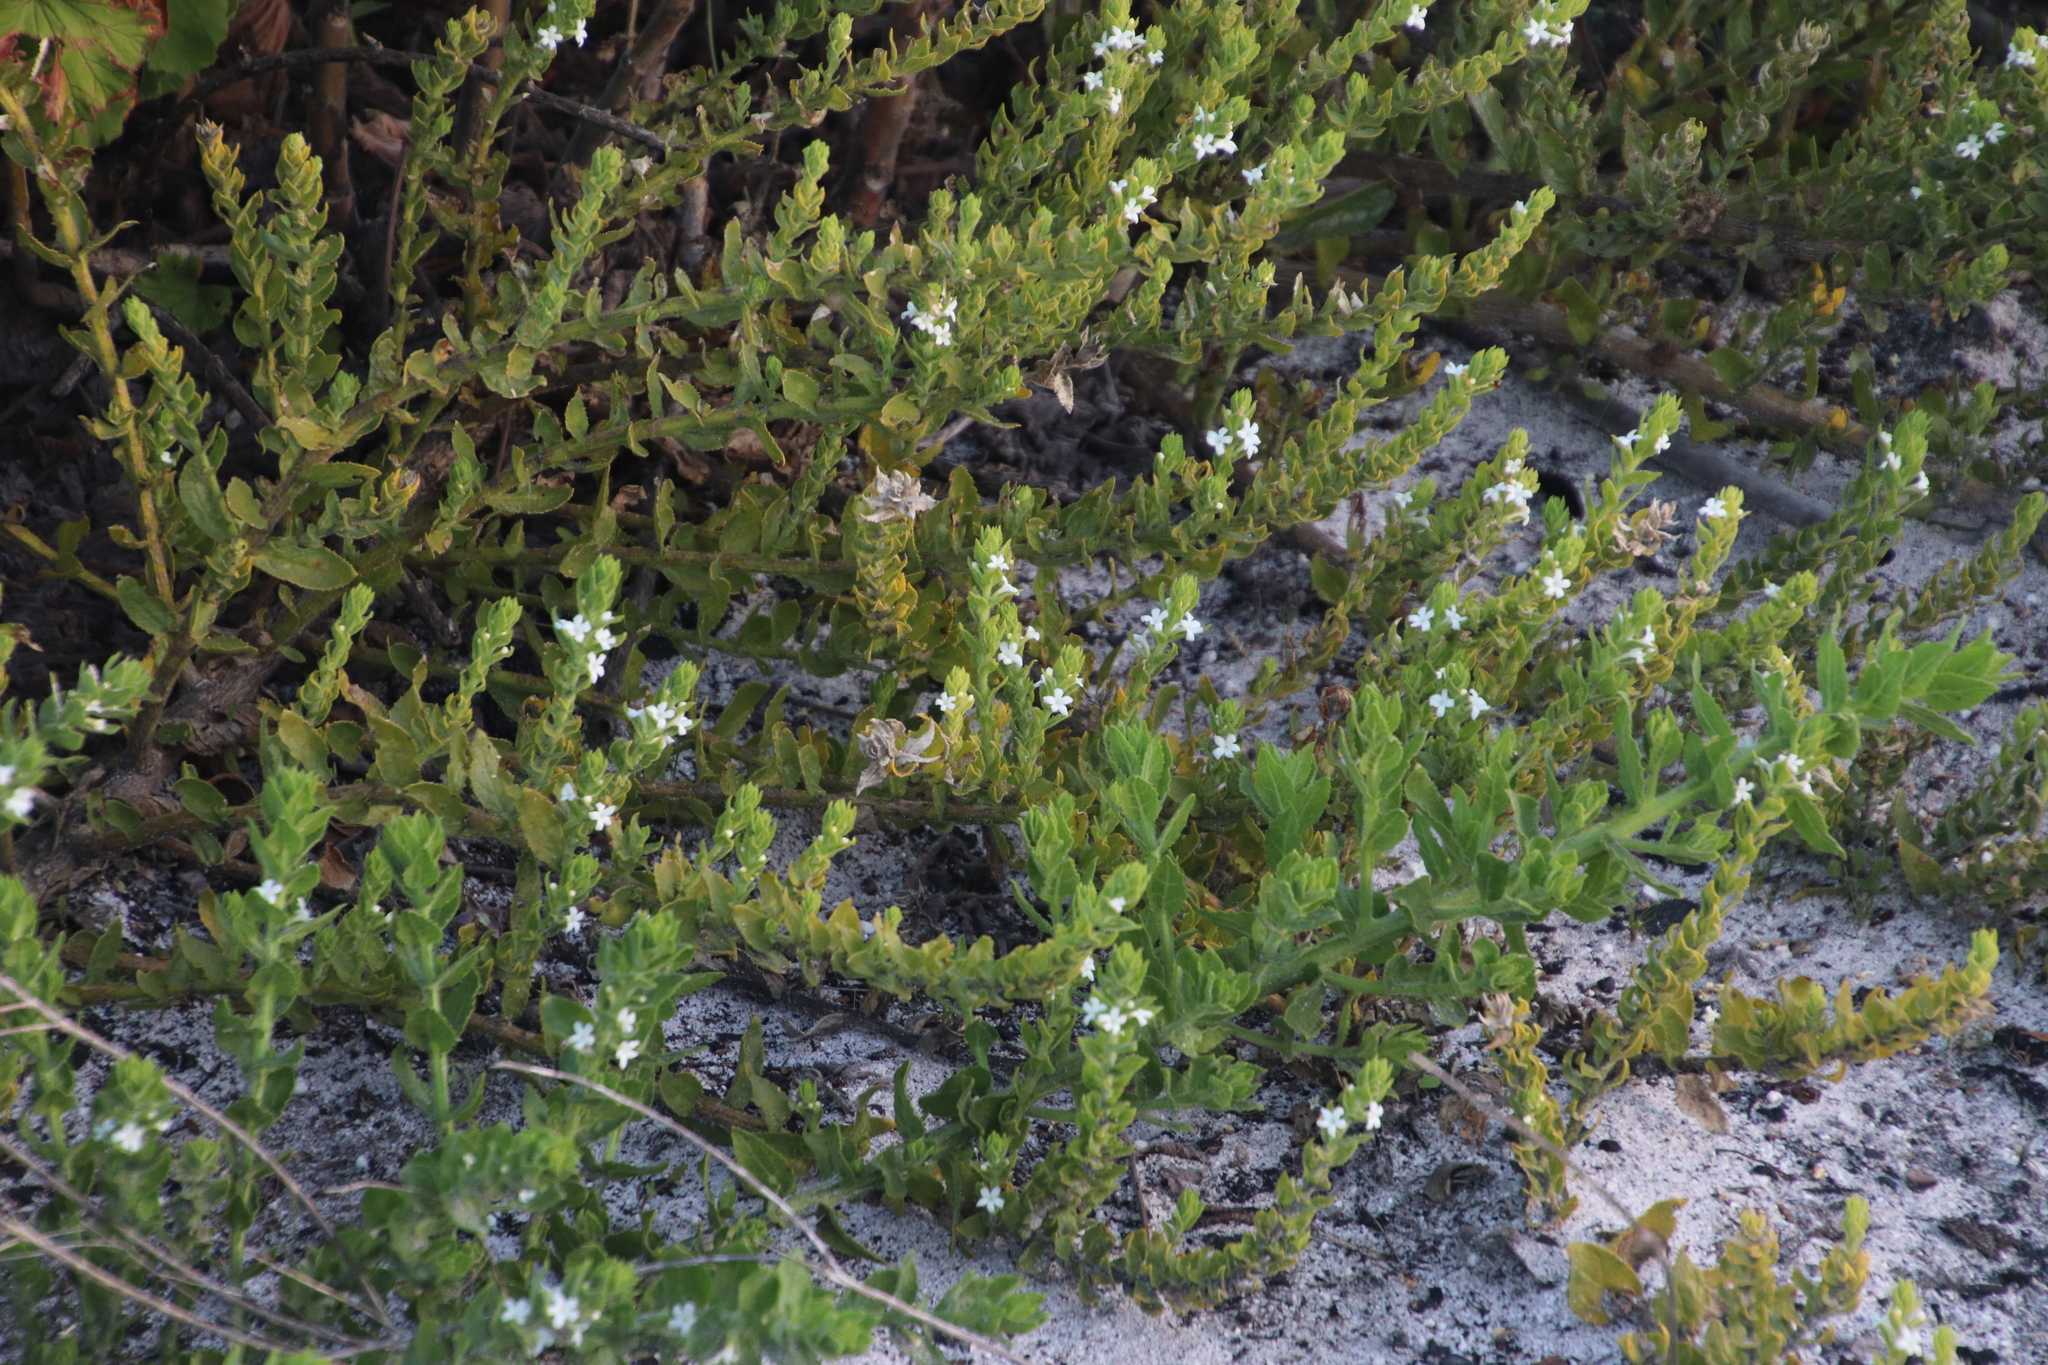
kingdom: Plantae
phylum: Tracheophyta
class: Magnoliopsida
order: Lamiales
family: Scrophulariaceae
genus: Oftia
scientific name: Oftia africana
